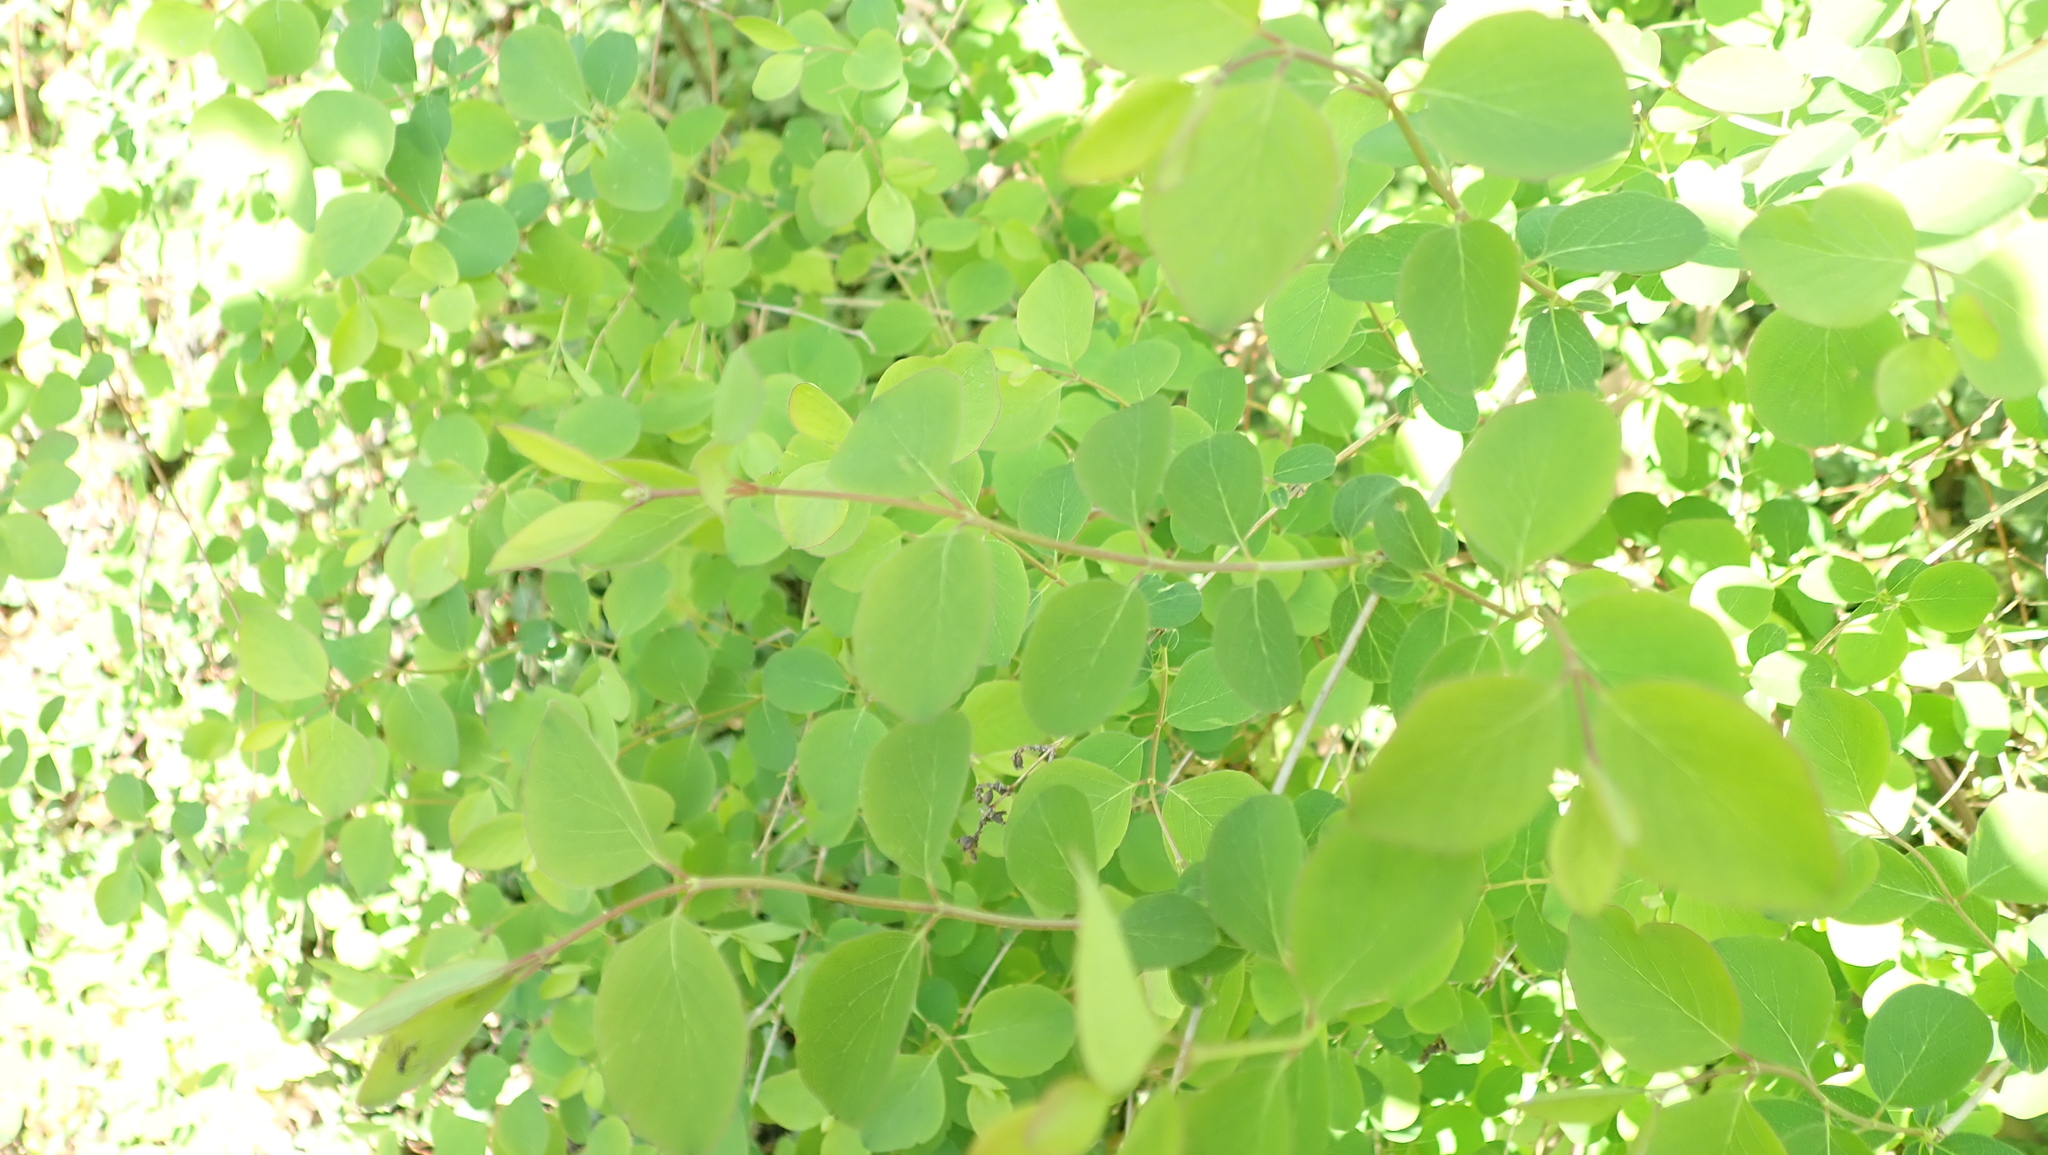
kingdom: Plantae
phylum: Tracheophyta
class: Liliopsida
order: Alismatales
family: Araceae
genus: Arum
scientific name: Arum maculatum
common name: Lords-and-ladies
